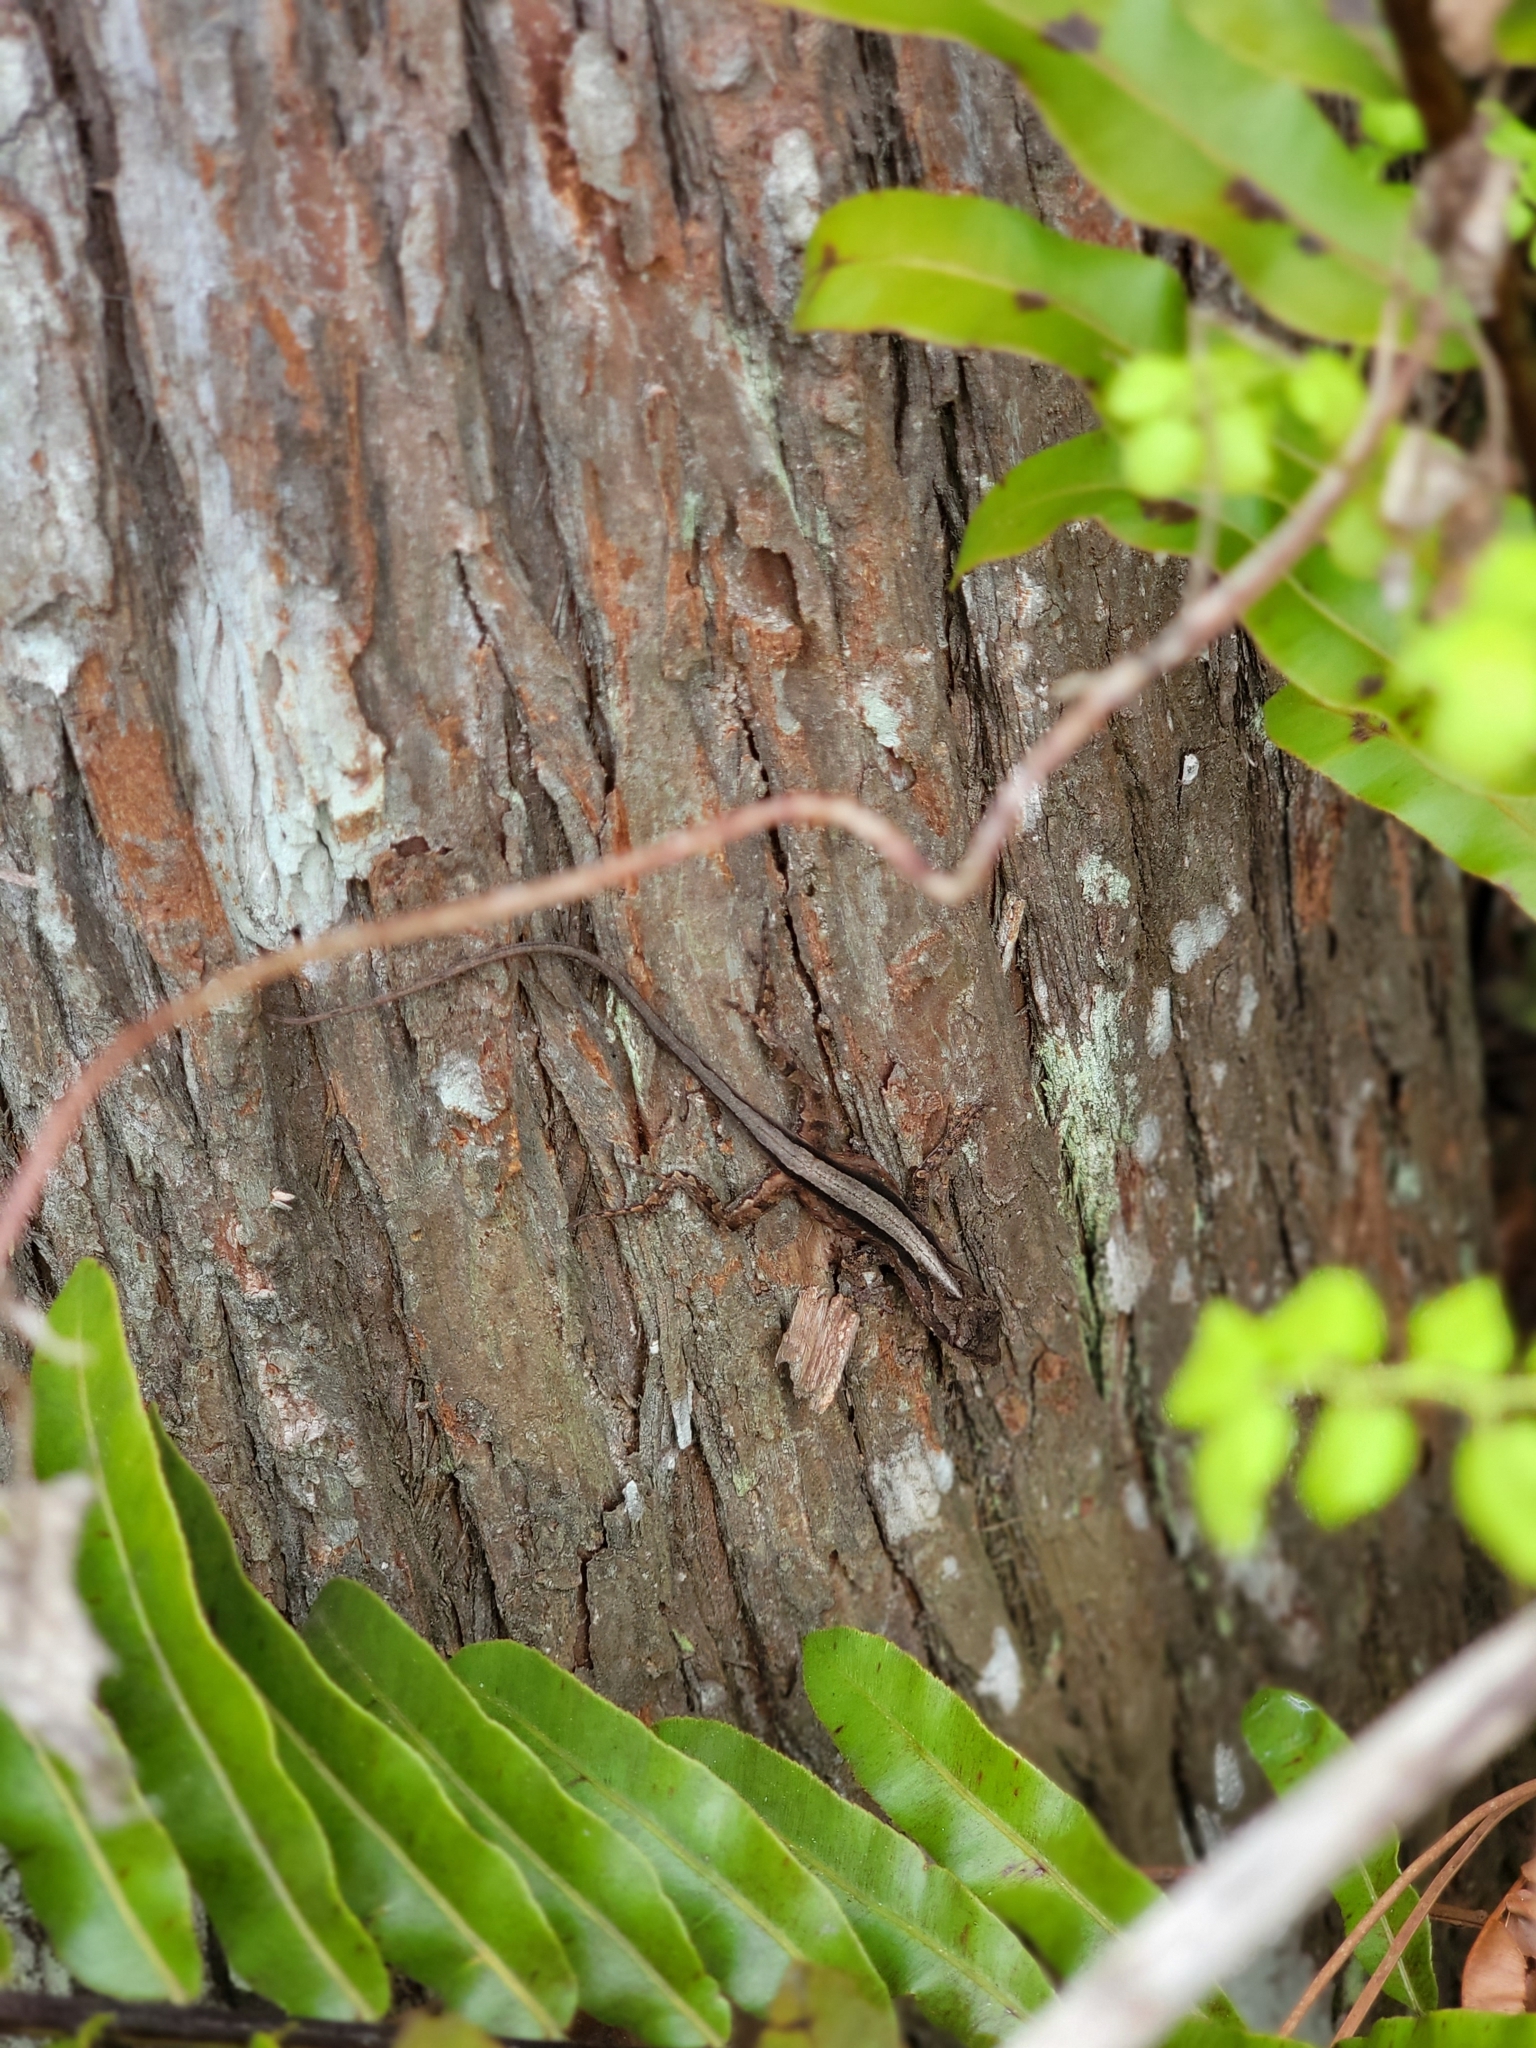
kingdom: Animalia
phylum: Chordata
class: Squamata
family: Dactyloidae
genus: Anolis
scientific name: Anolis sagrei
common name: Brown anole
